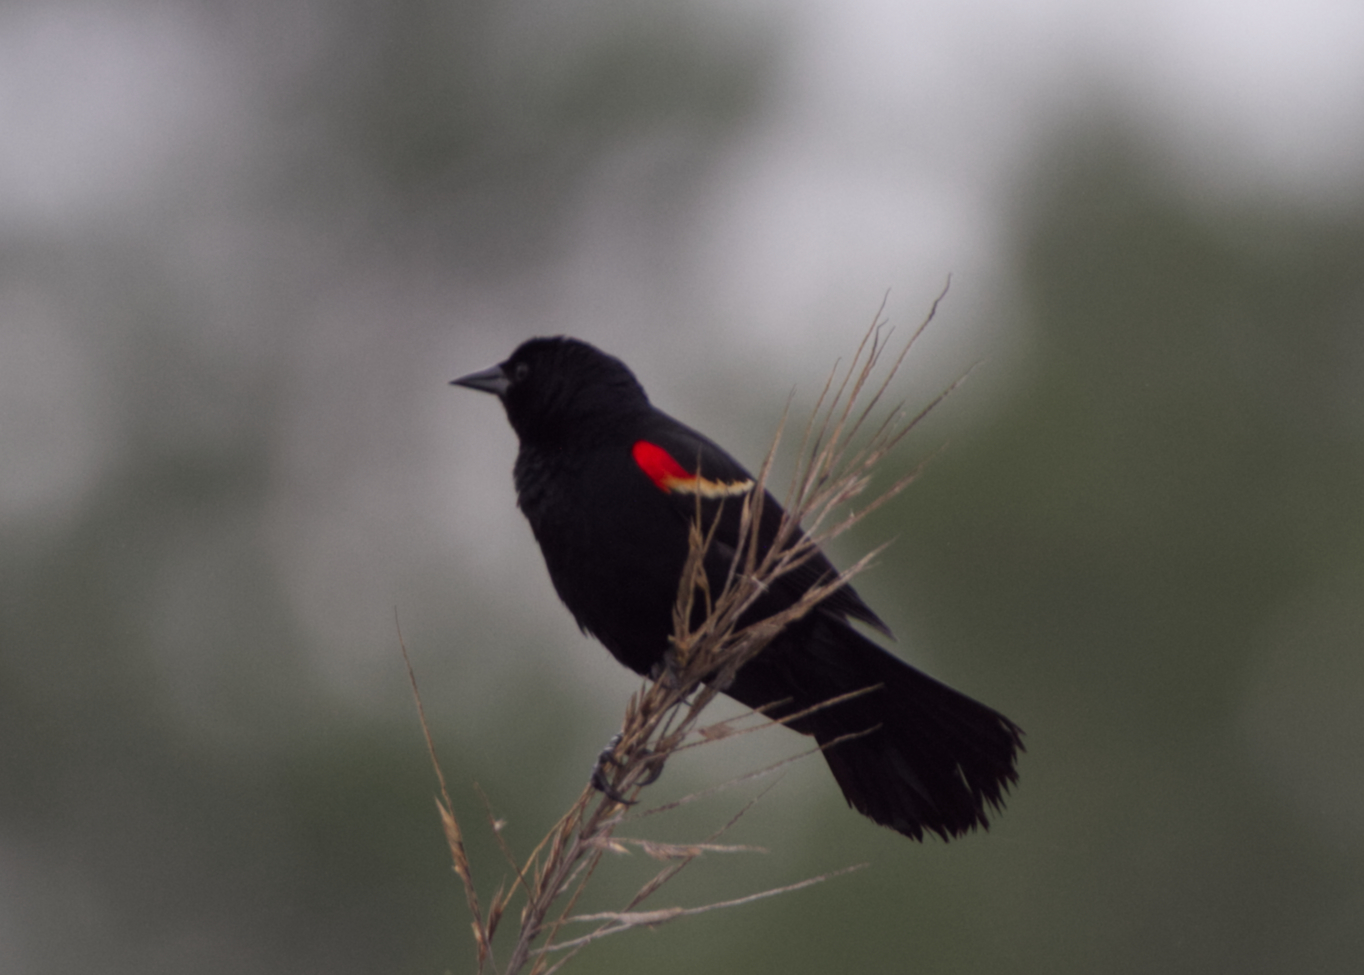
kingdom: Animalia
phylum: Chordata
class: Aves
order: Passeriformes
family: Icteridae
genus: Agelaius
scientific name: Agelaius phoeniceus
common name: Red-winged blackbird
